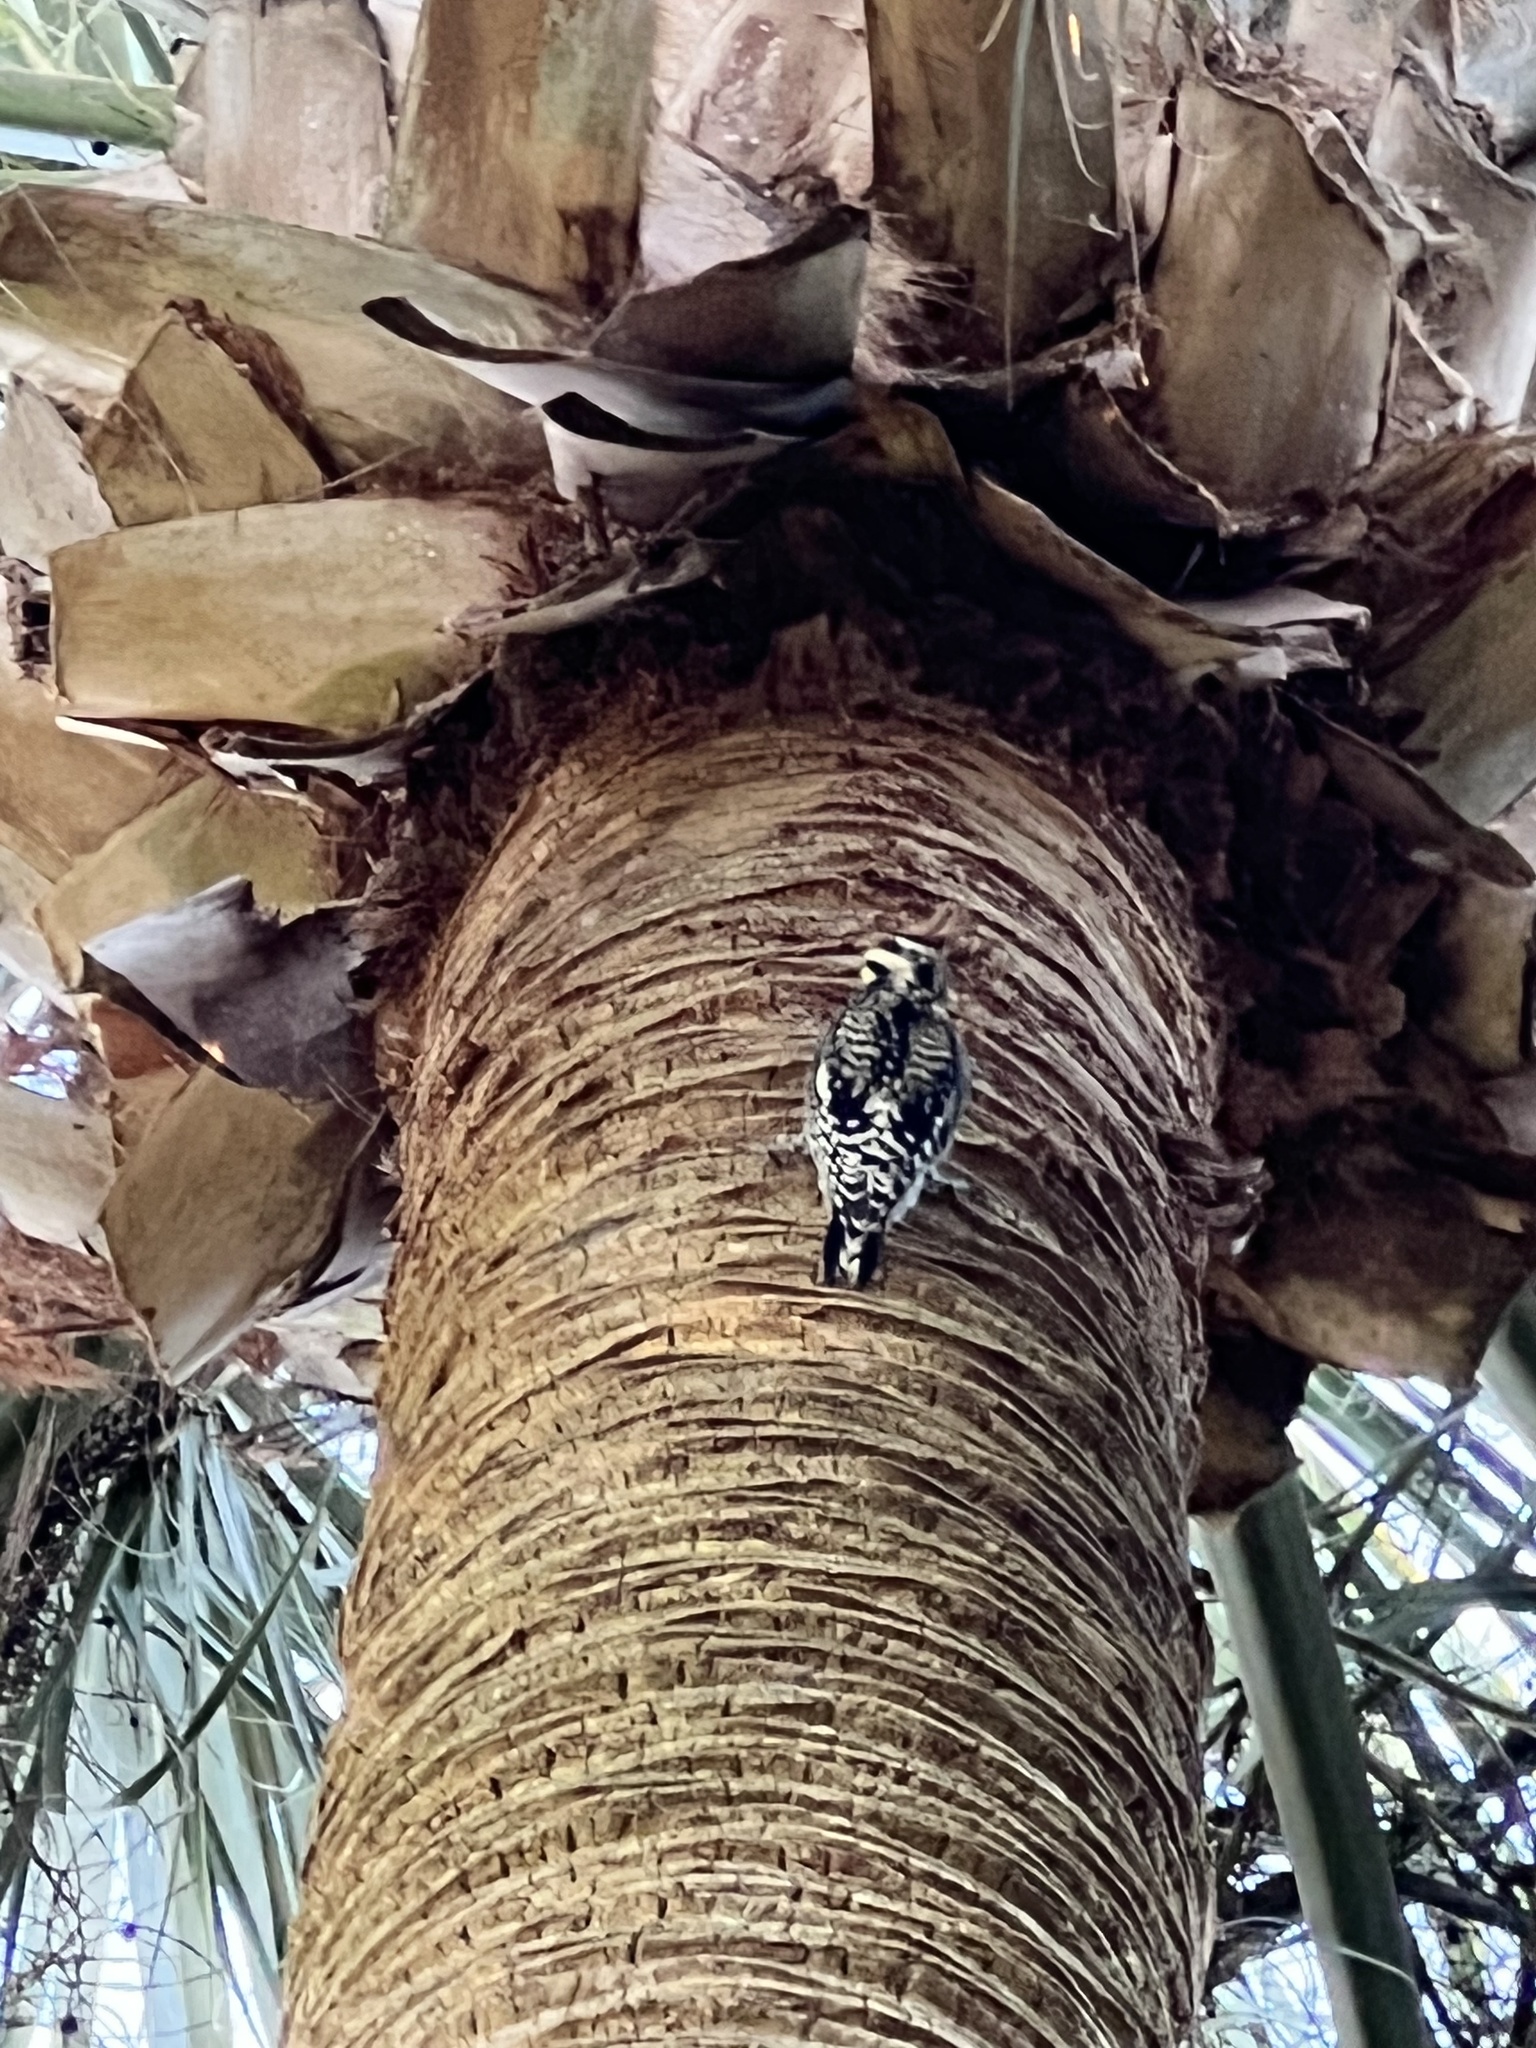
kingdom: Animalia
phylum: Chordata
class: Aves
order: Piciformes
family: Picidae
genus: Sphyrapicus
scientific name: Sphyrapicus varius
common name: Yellow-bellied sapsucker
